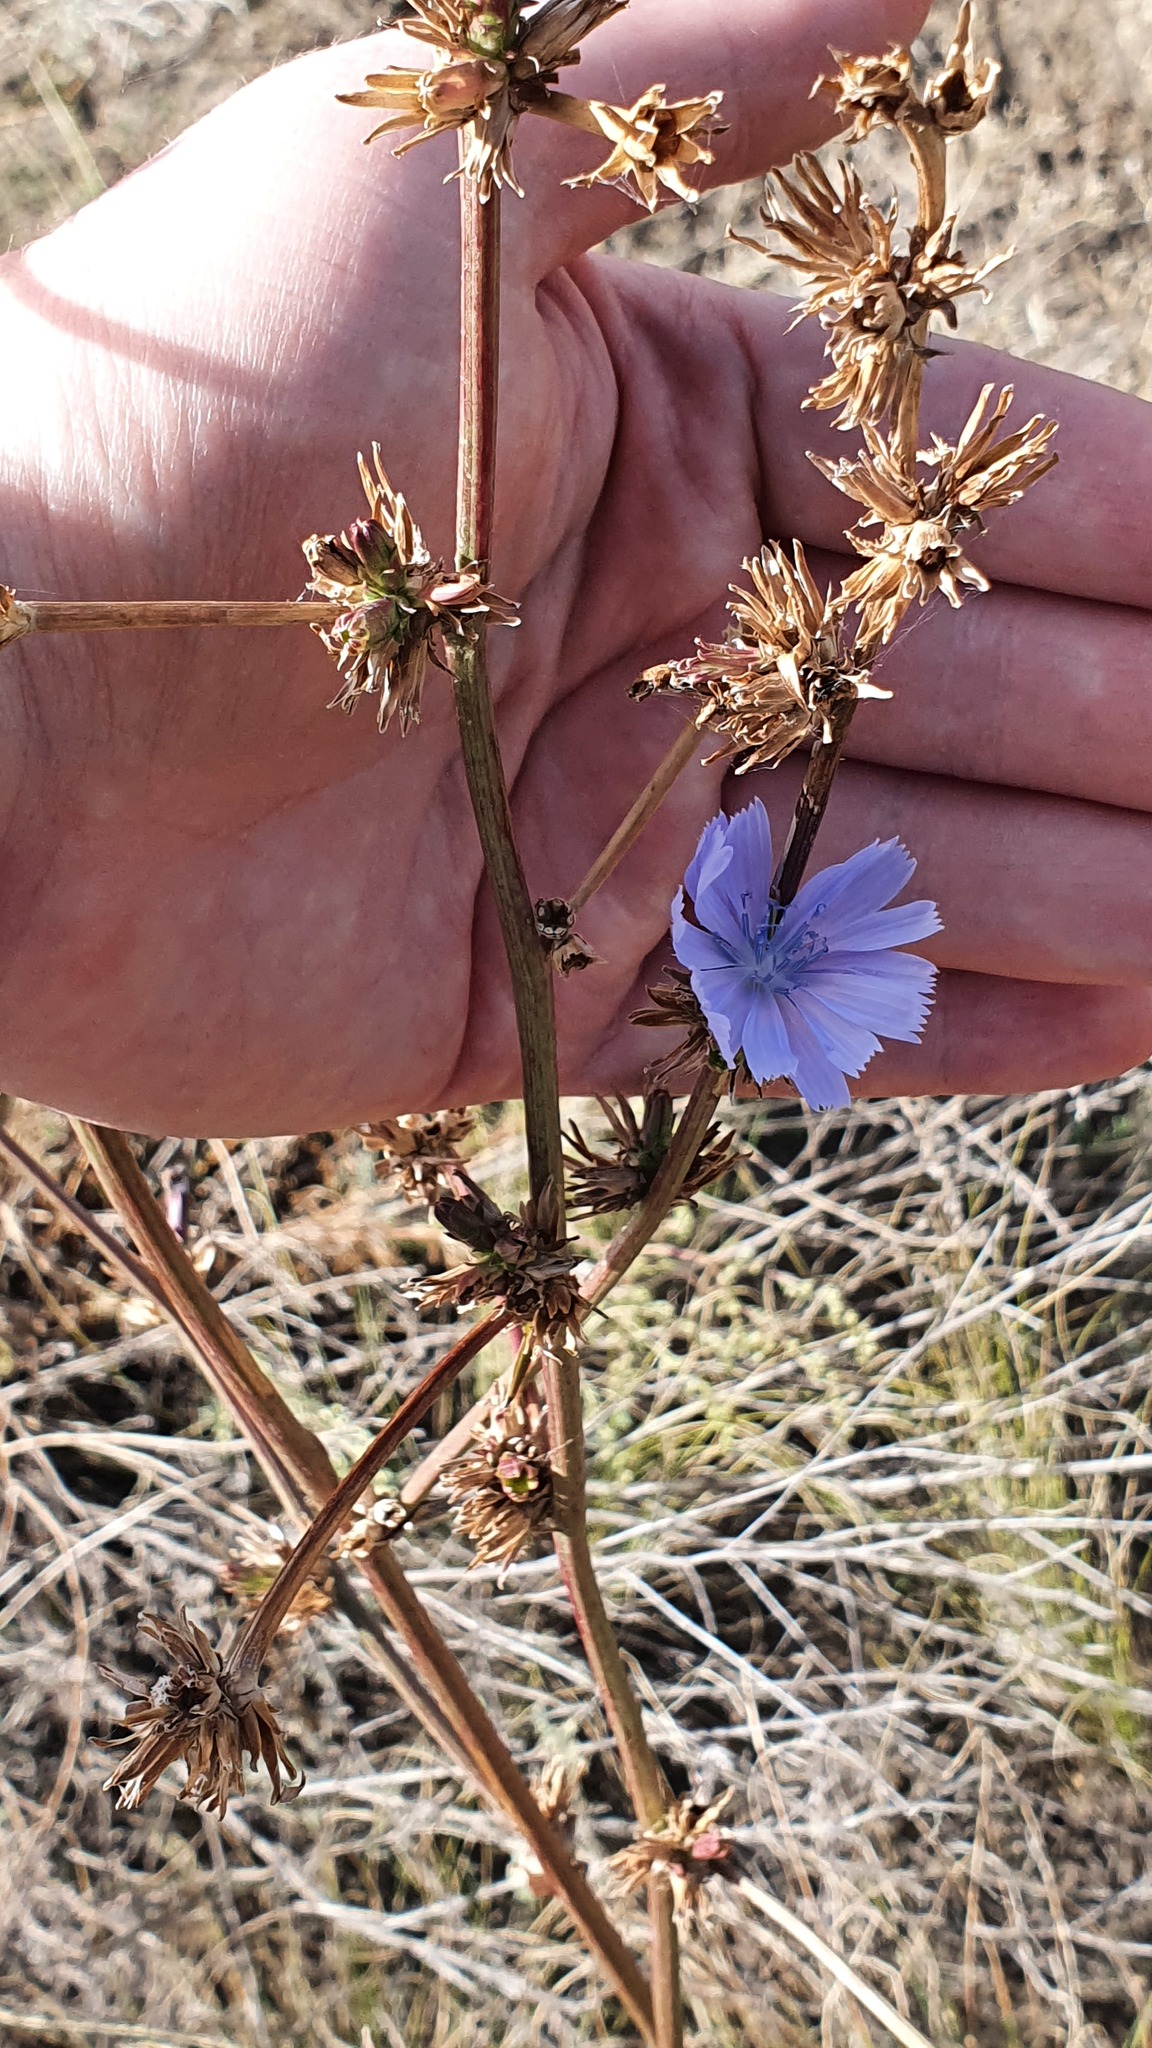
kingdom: Plantae
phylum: Tracheophyta
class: Magnoliopsida
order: Asterales
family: Asteraceae
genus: Cichorium
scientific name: Cichorium intybus
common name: Chicory
